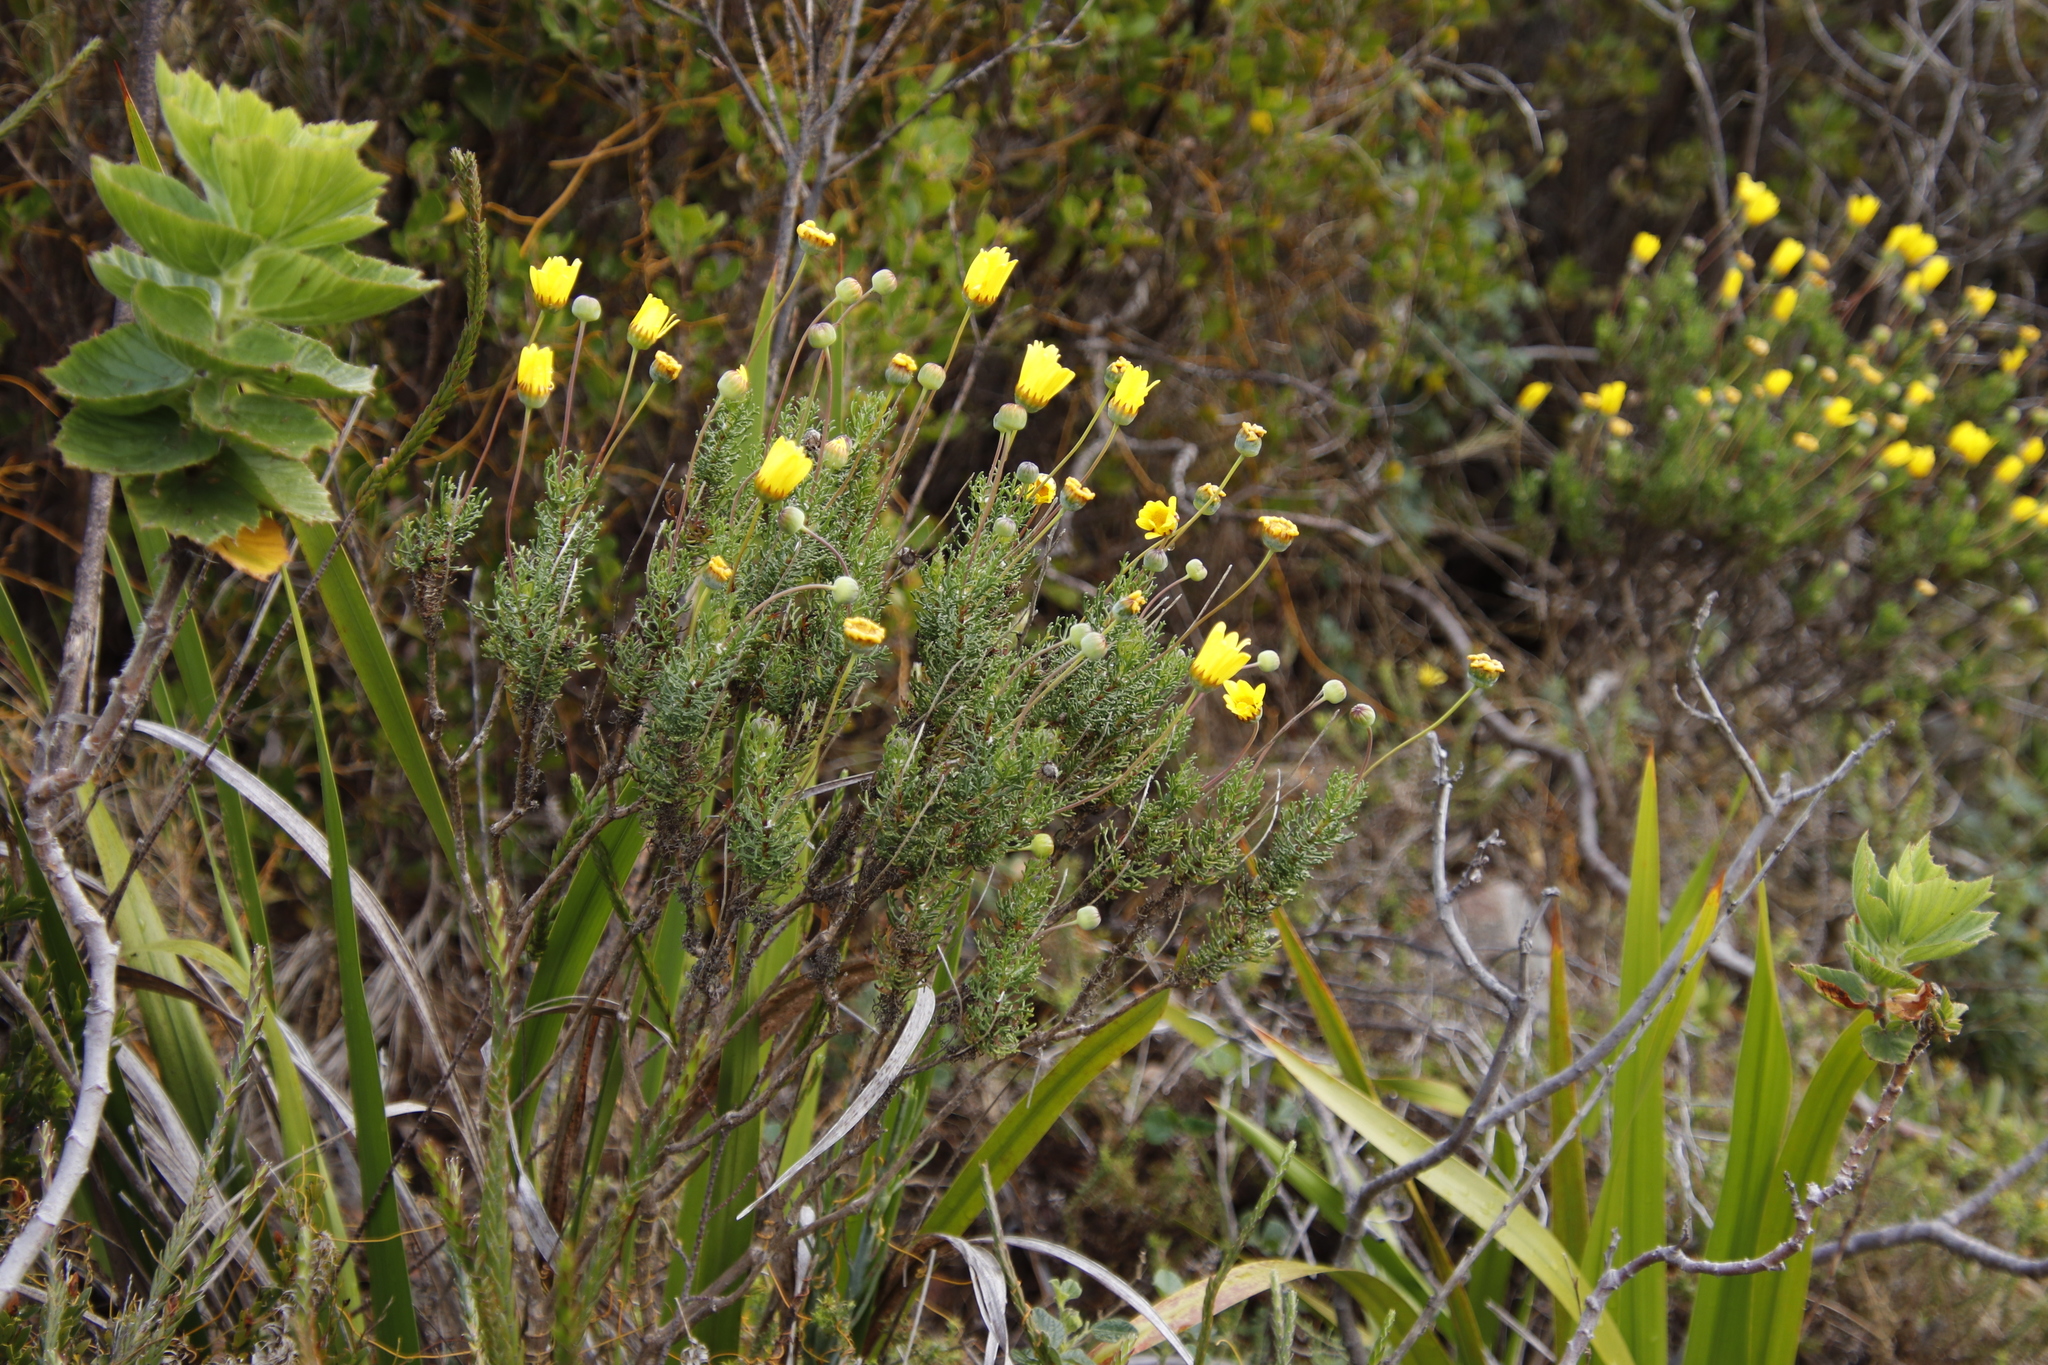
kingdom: Plantae
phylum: Tracheophyta
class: Magnoliopsida
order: Asterales
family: Asteraceae
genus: Euryops
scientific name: Euryops abrotanifolius
